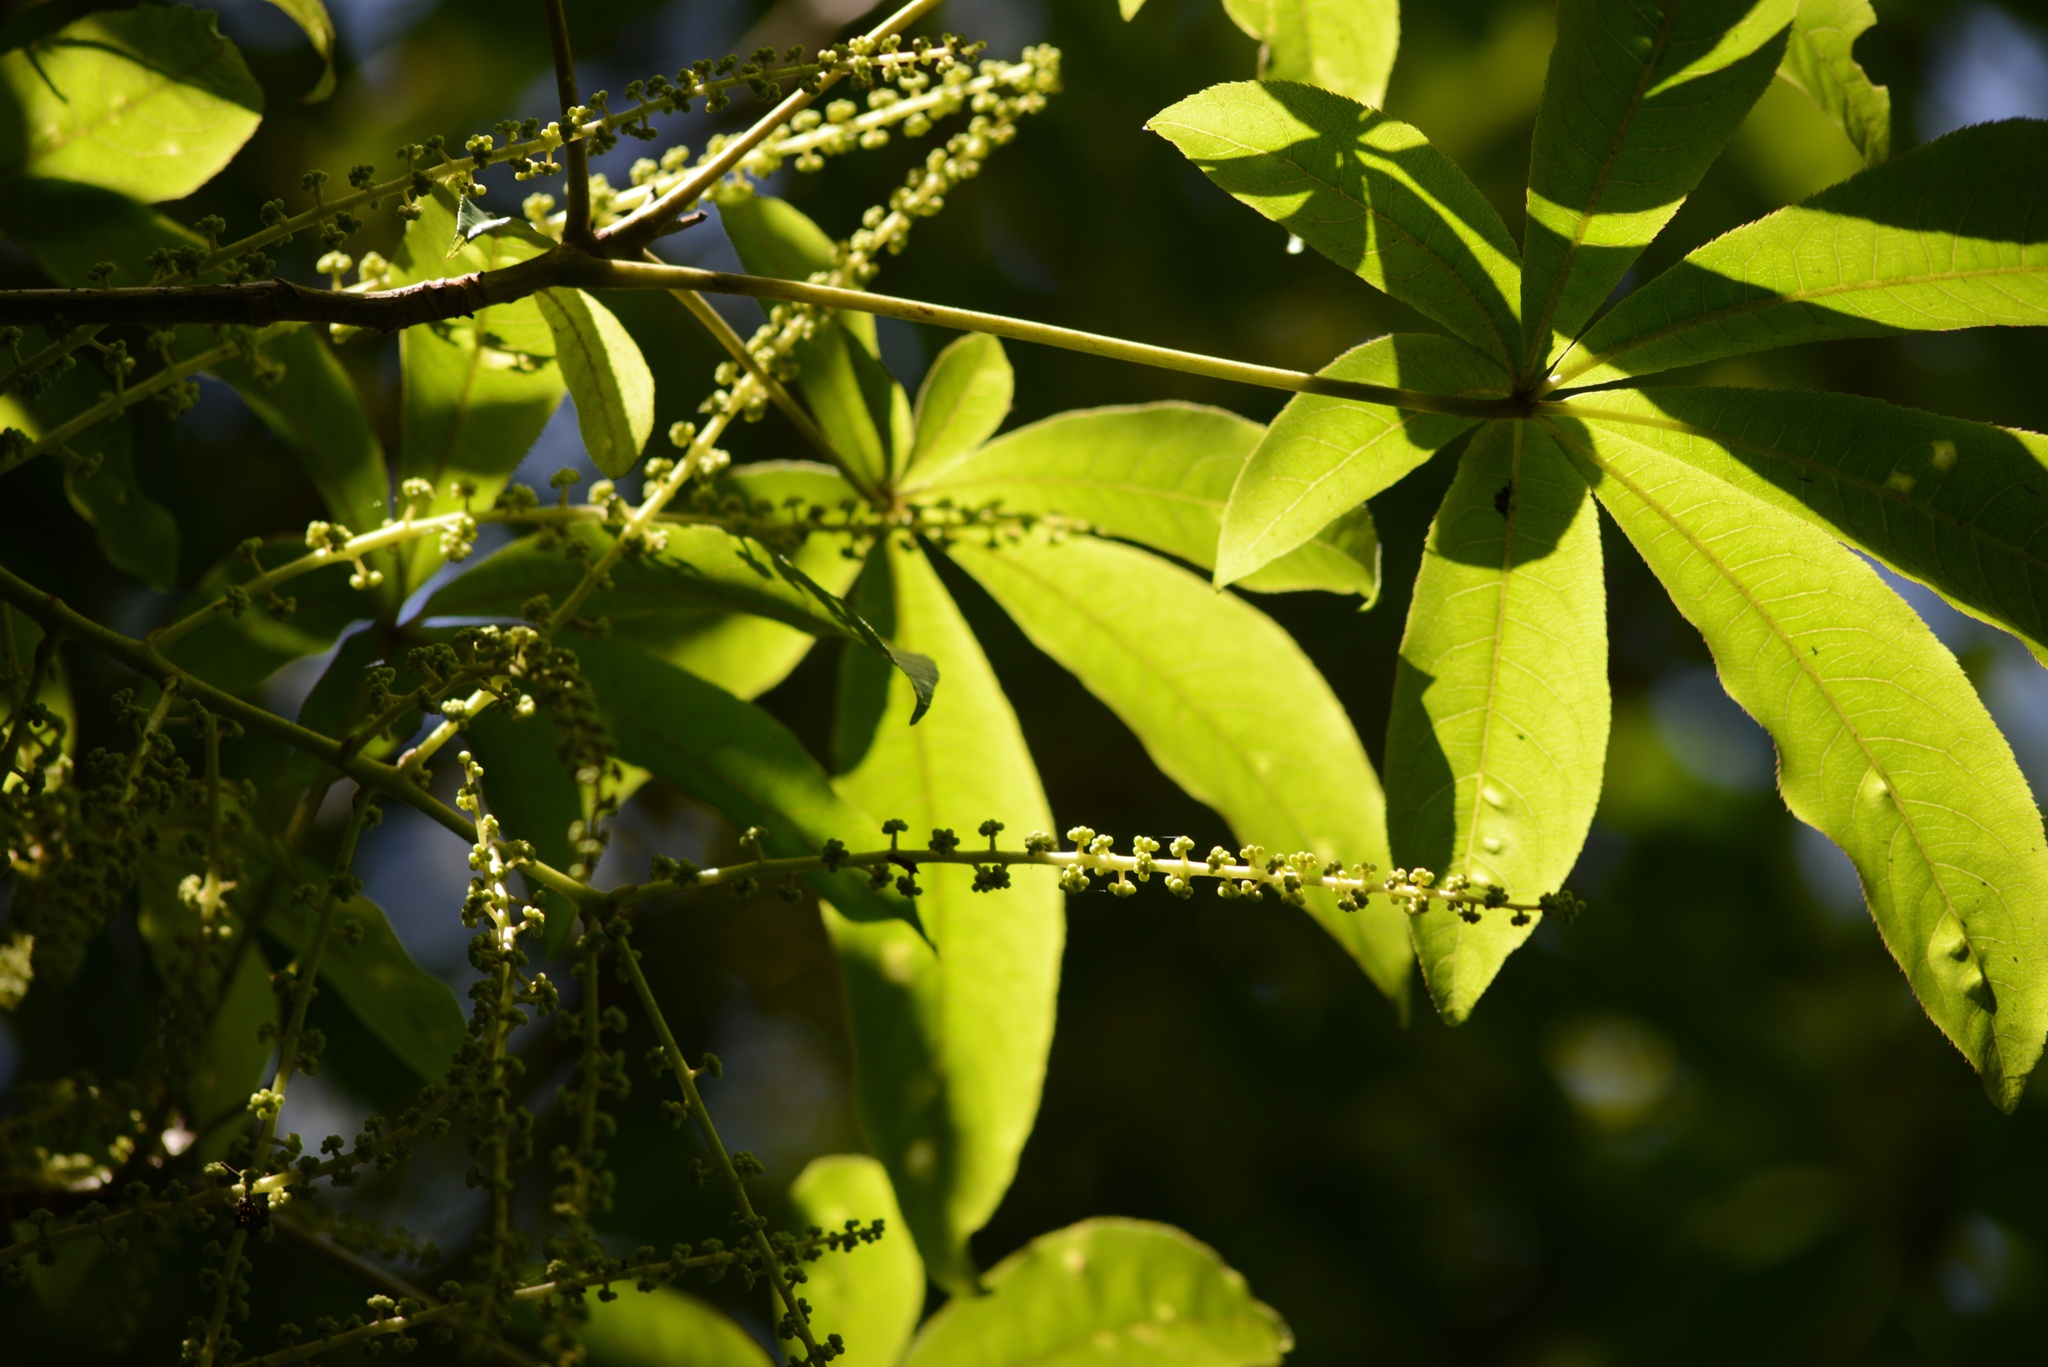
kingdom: Plantae
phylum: Tracheophyta
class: Magnoliopsida
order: Apiales
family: Araliaceae
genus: Schefflera
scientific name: Schefflera digitata
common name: Pate
